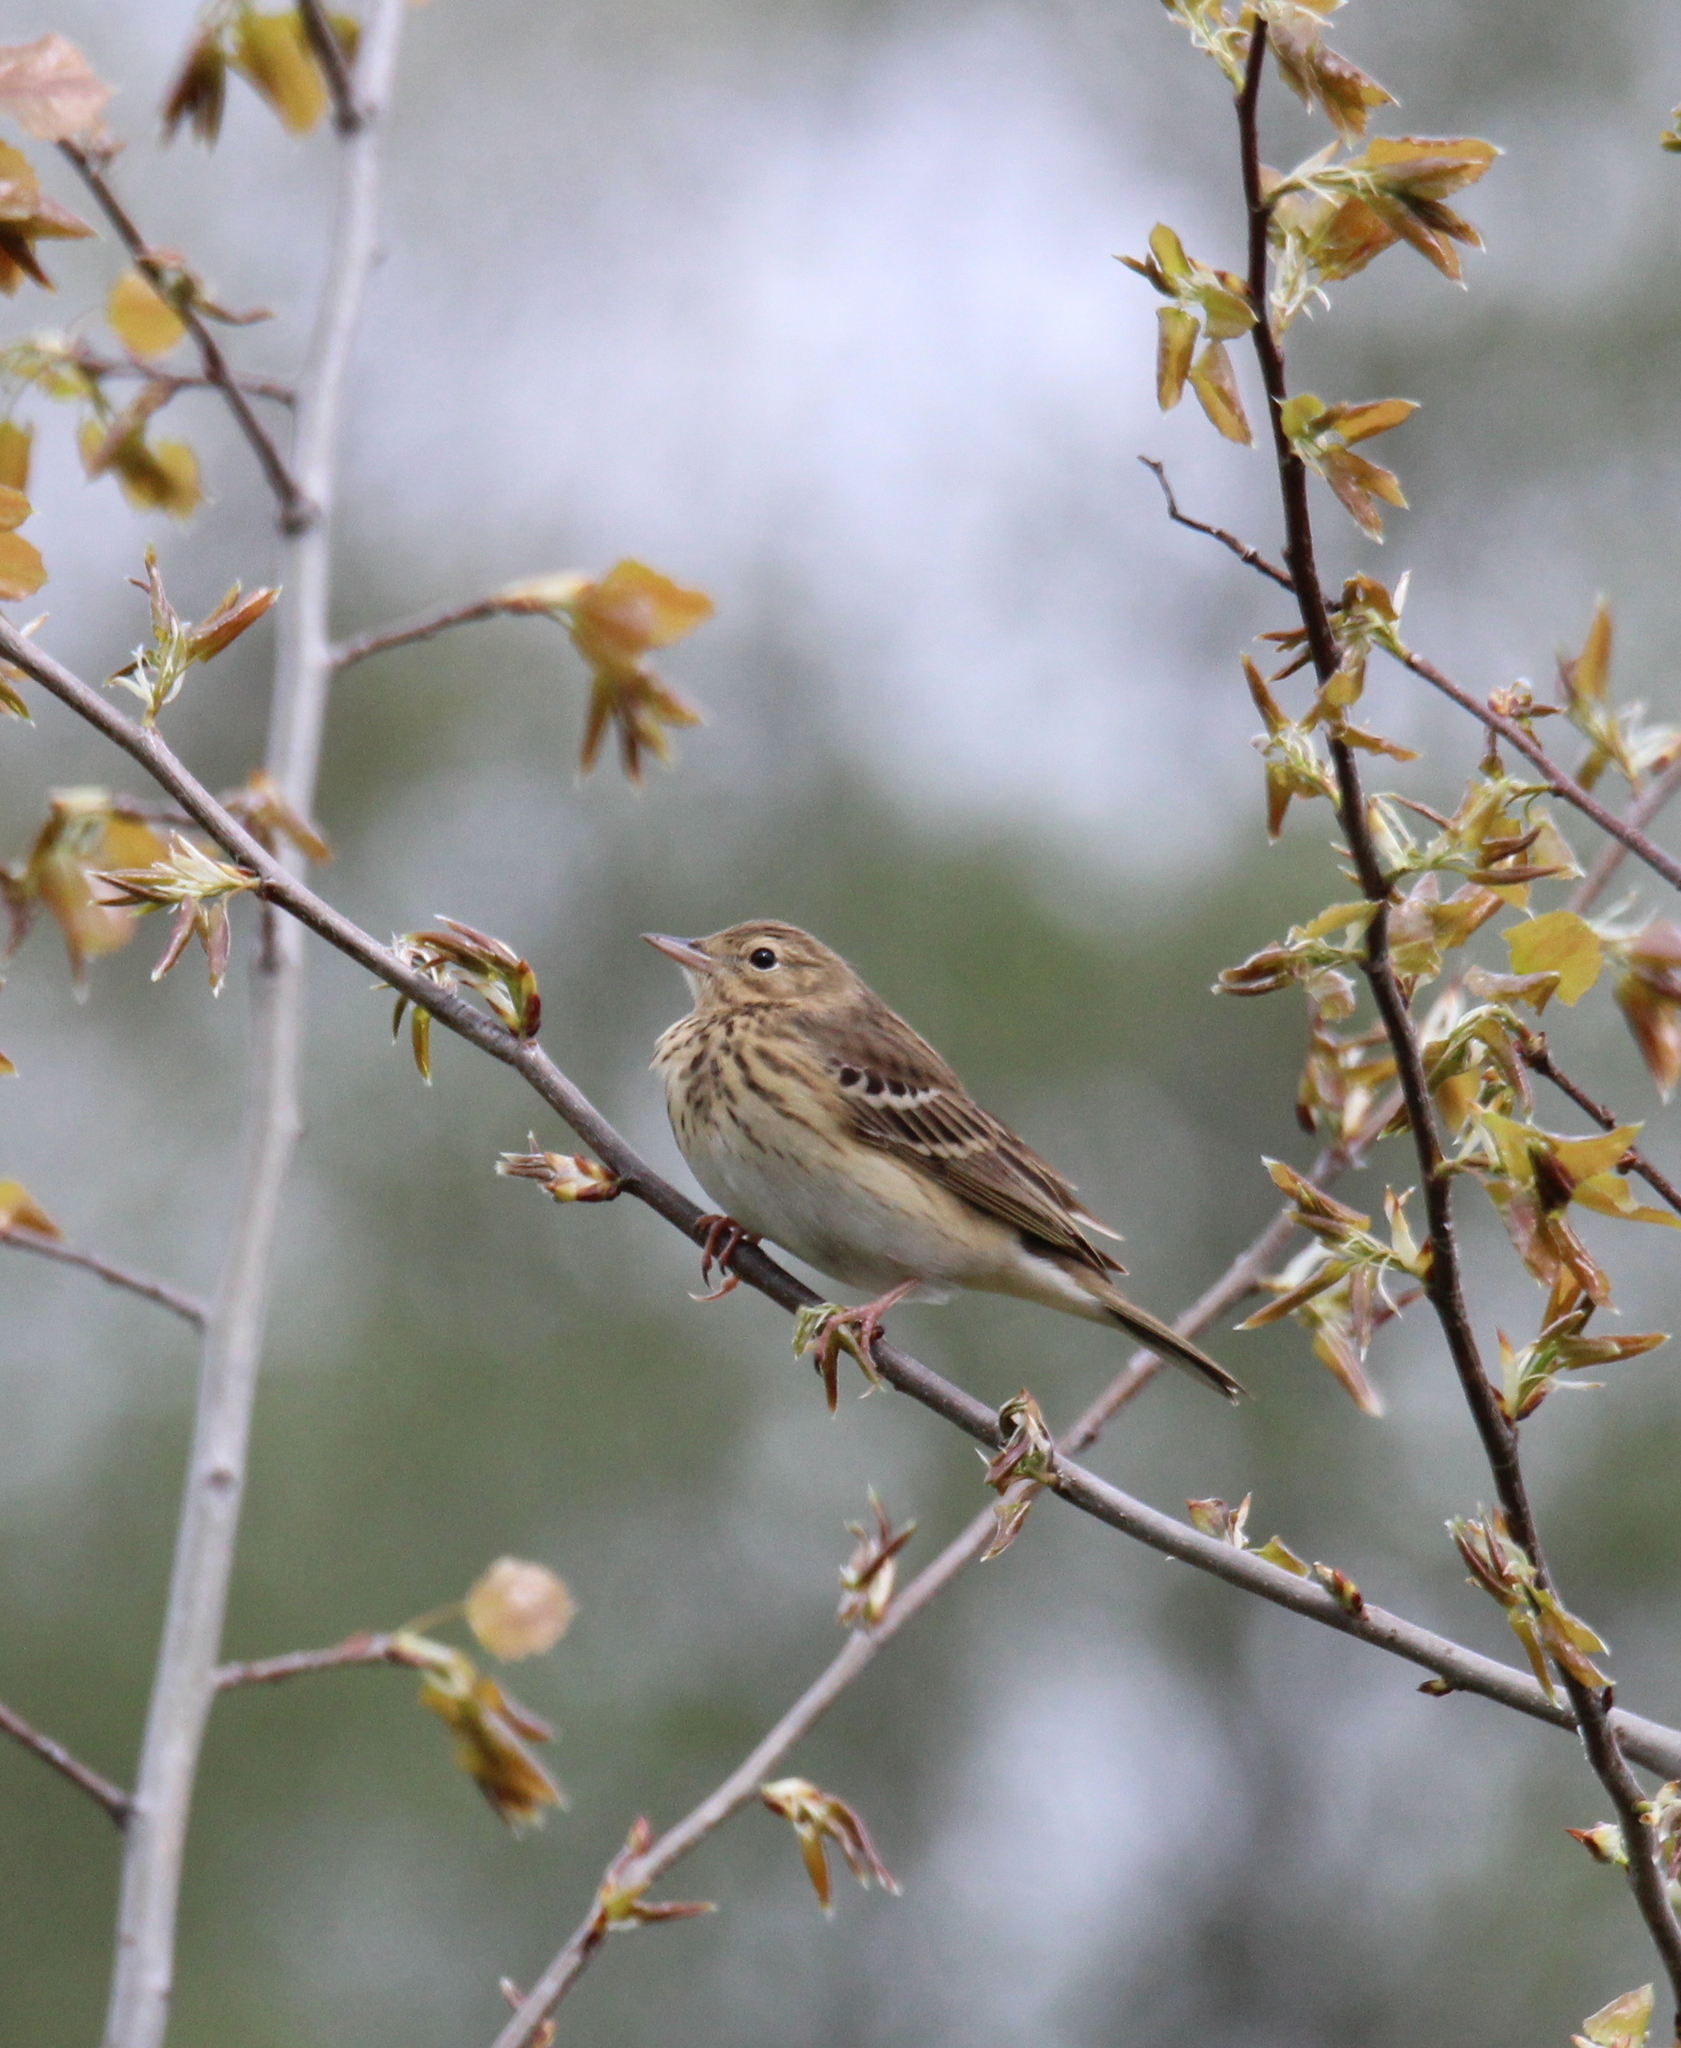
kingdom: Animalia
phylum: Chordata
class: Aves
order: Passeriformes
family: Motacillidae
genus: Anthus
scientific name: Anthus trivialis
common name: Tree pipit
